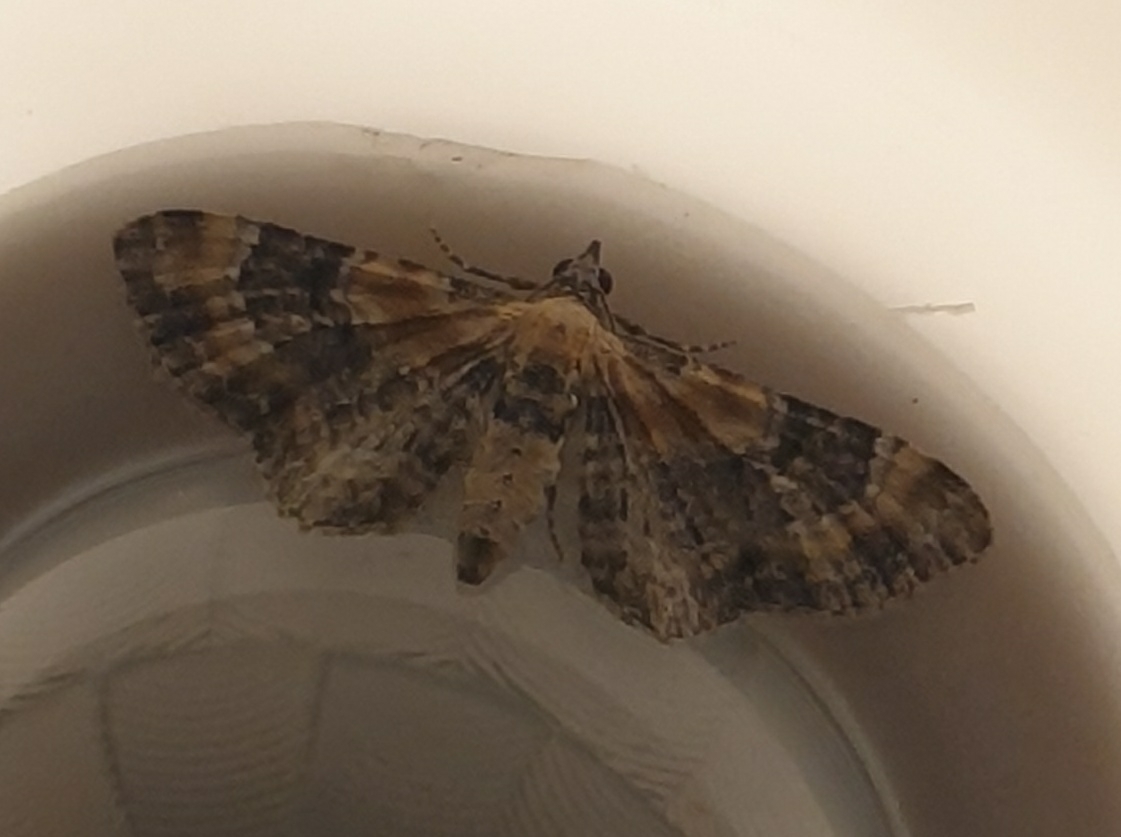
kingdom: Animalia
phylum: Arthropoda
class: Insecta
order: Lepidoptera
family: Geometridae
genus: Eupithecia
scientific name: Eupithecia linariata
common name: Toadflax pug
